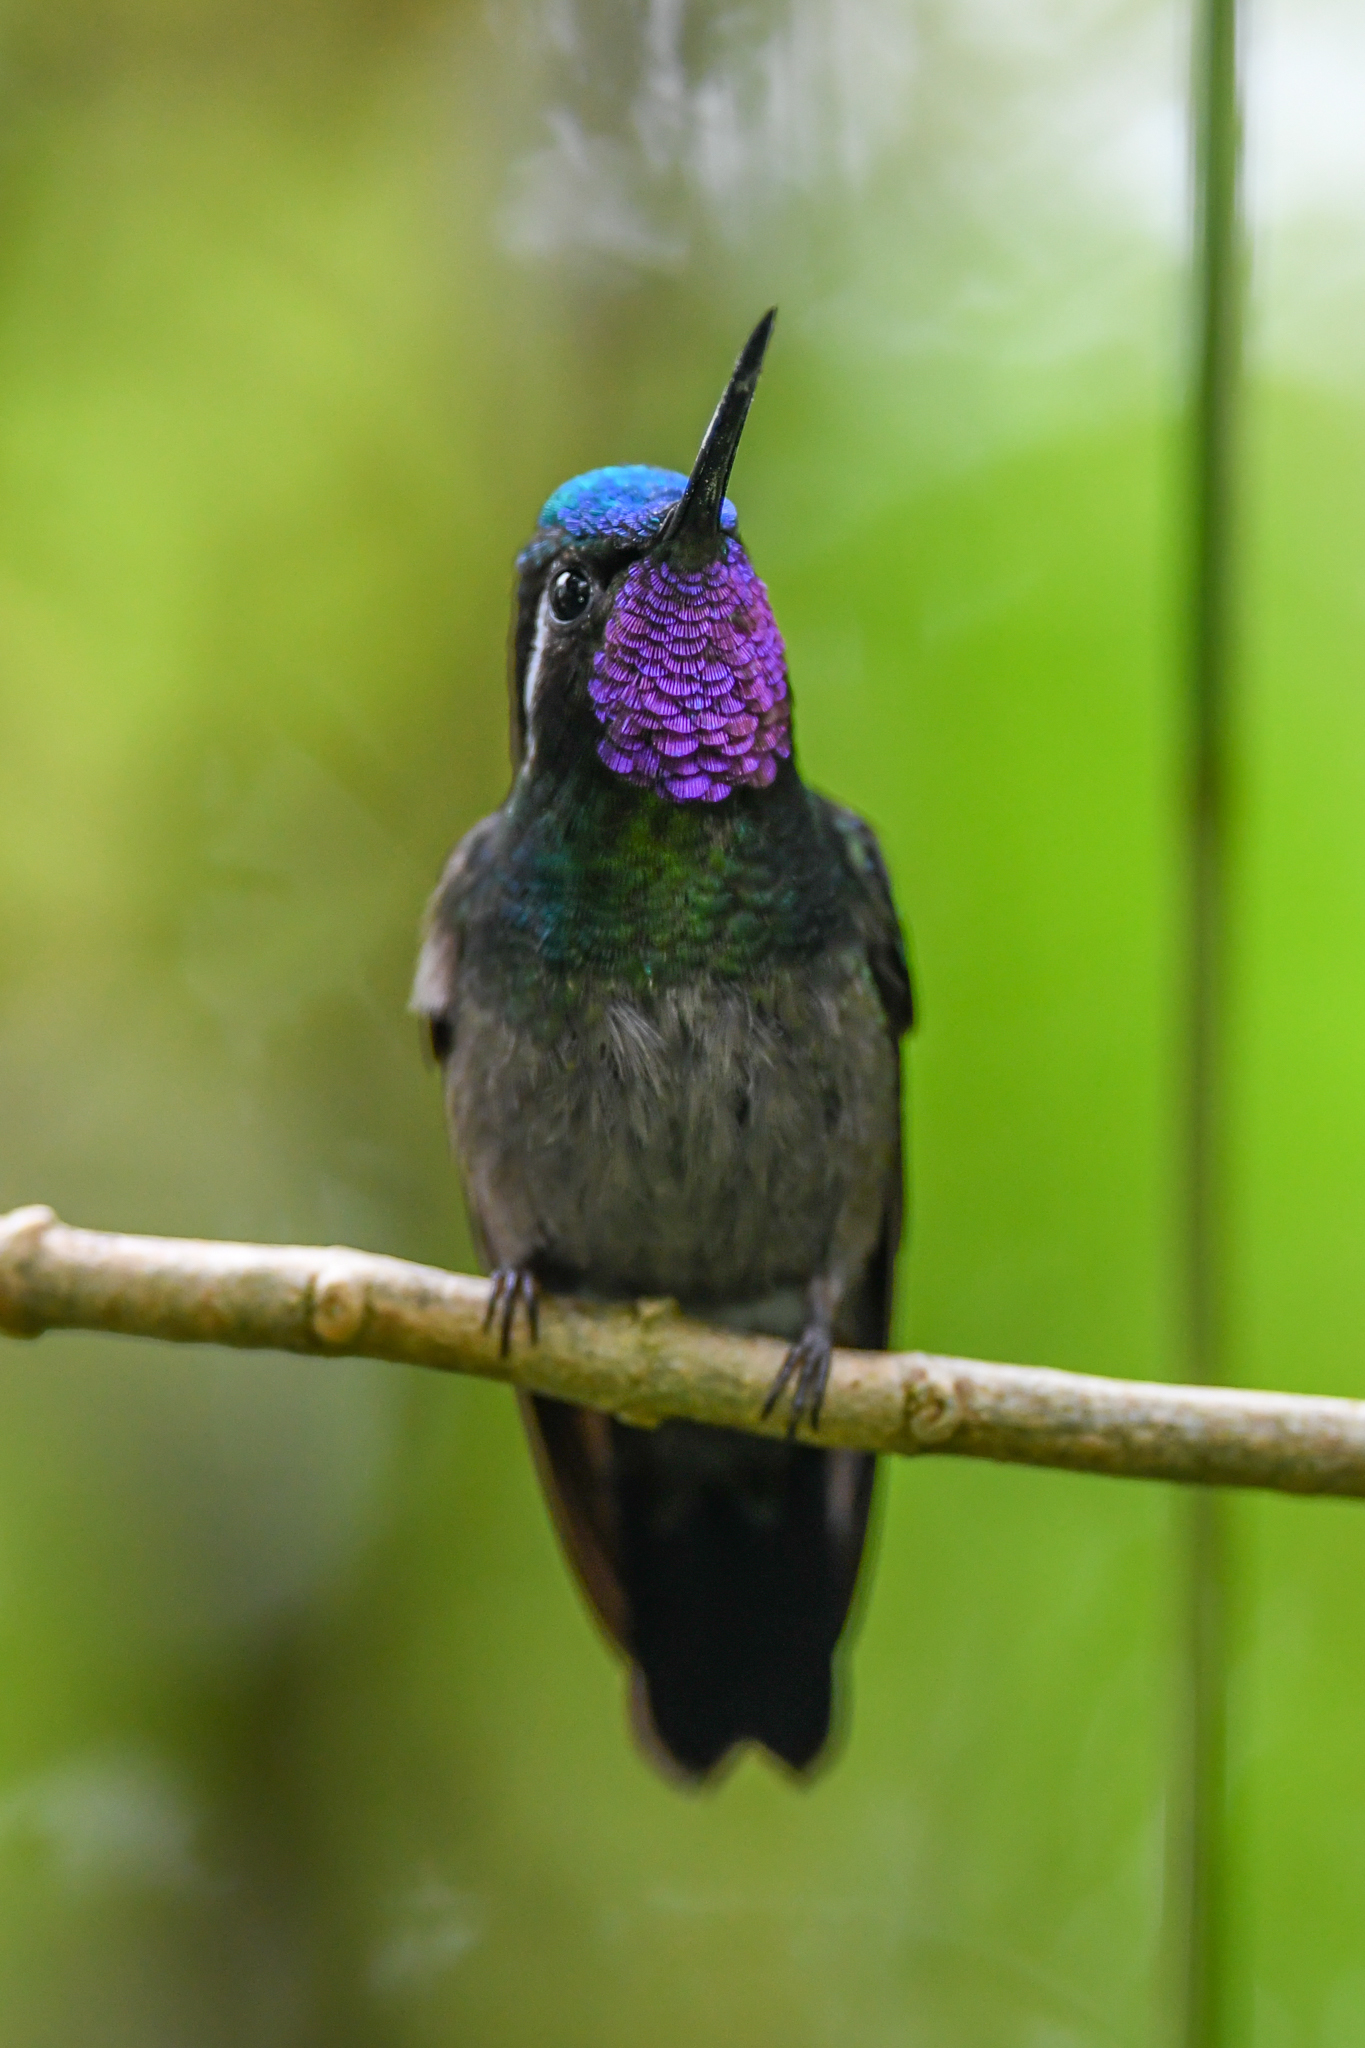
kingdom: Animalia
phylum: Chordata
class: Aves
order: Apodiformes
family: Trochilidae
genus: Lampornis
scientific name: Lampornis calolaemus
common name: Purple-throated mountain-gem
